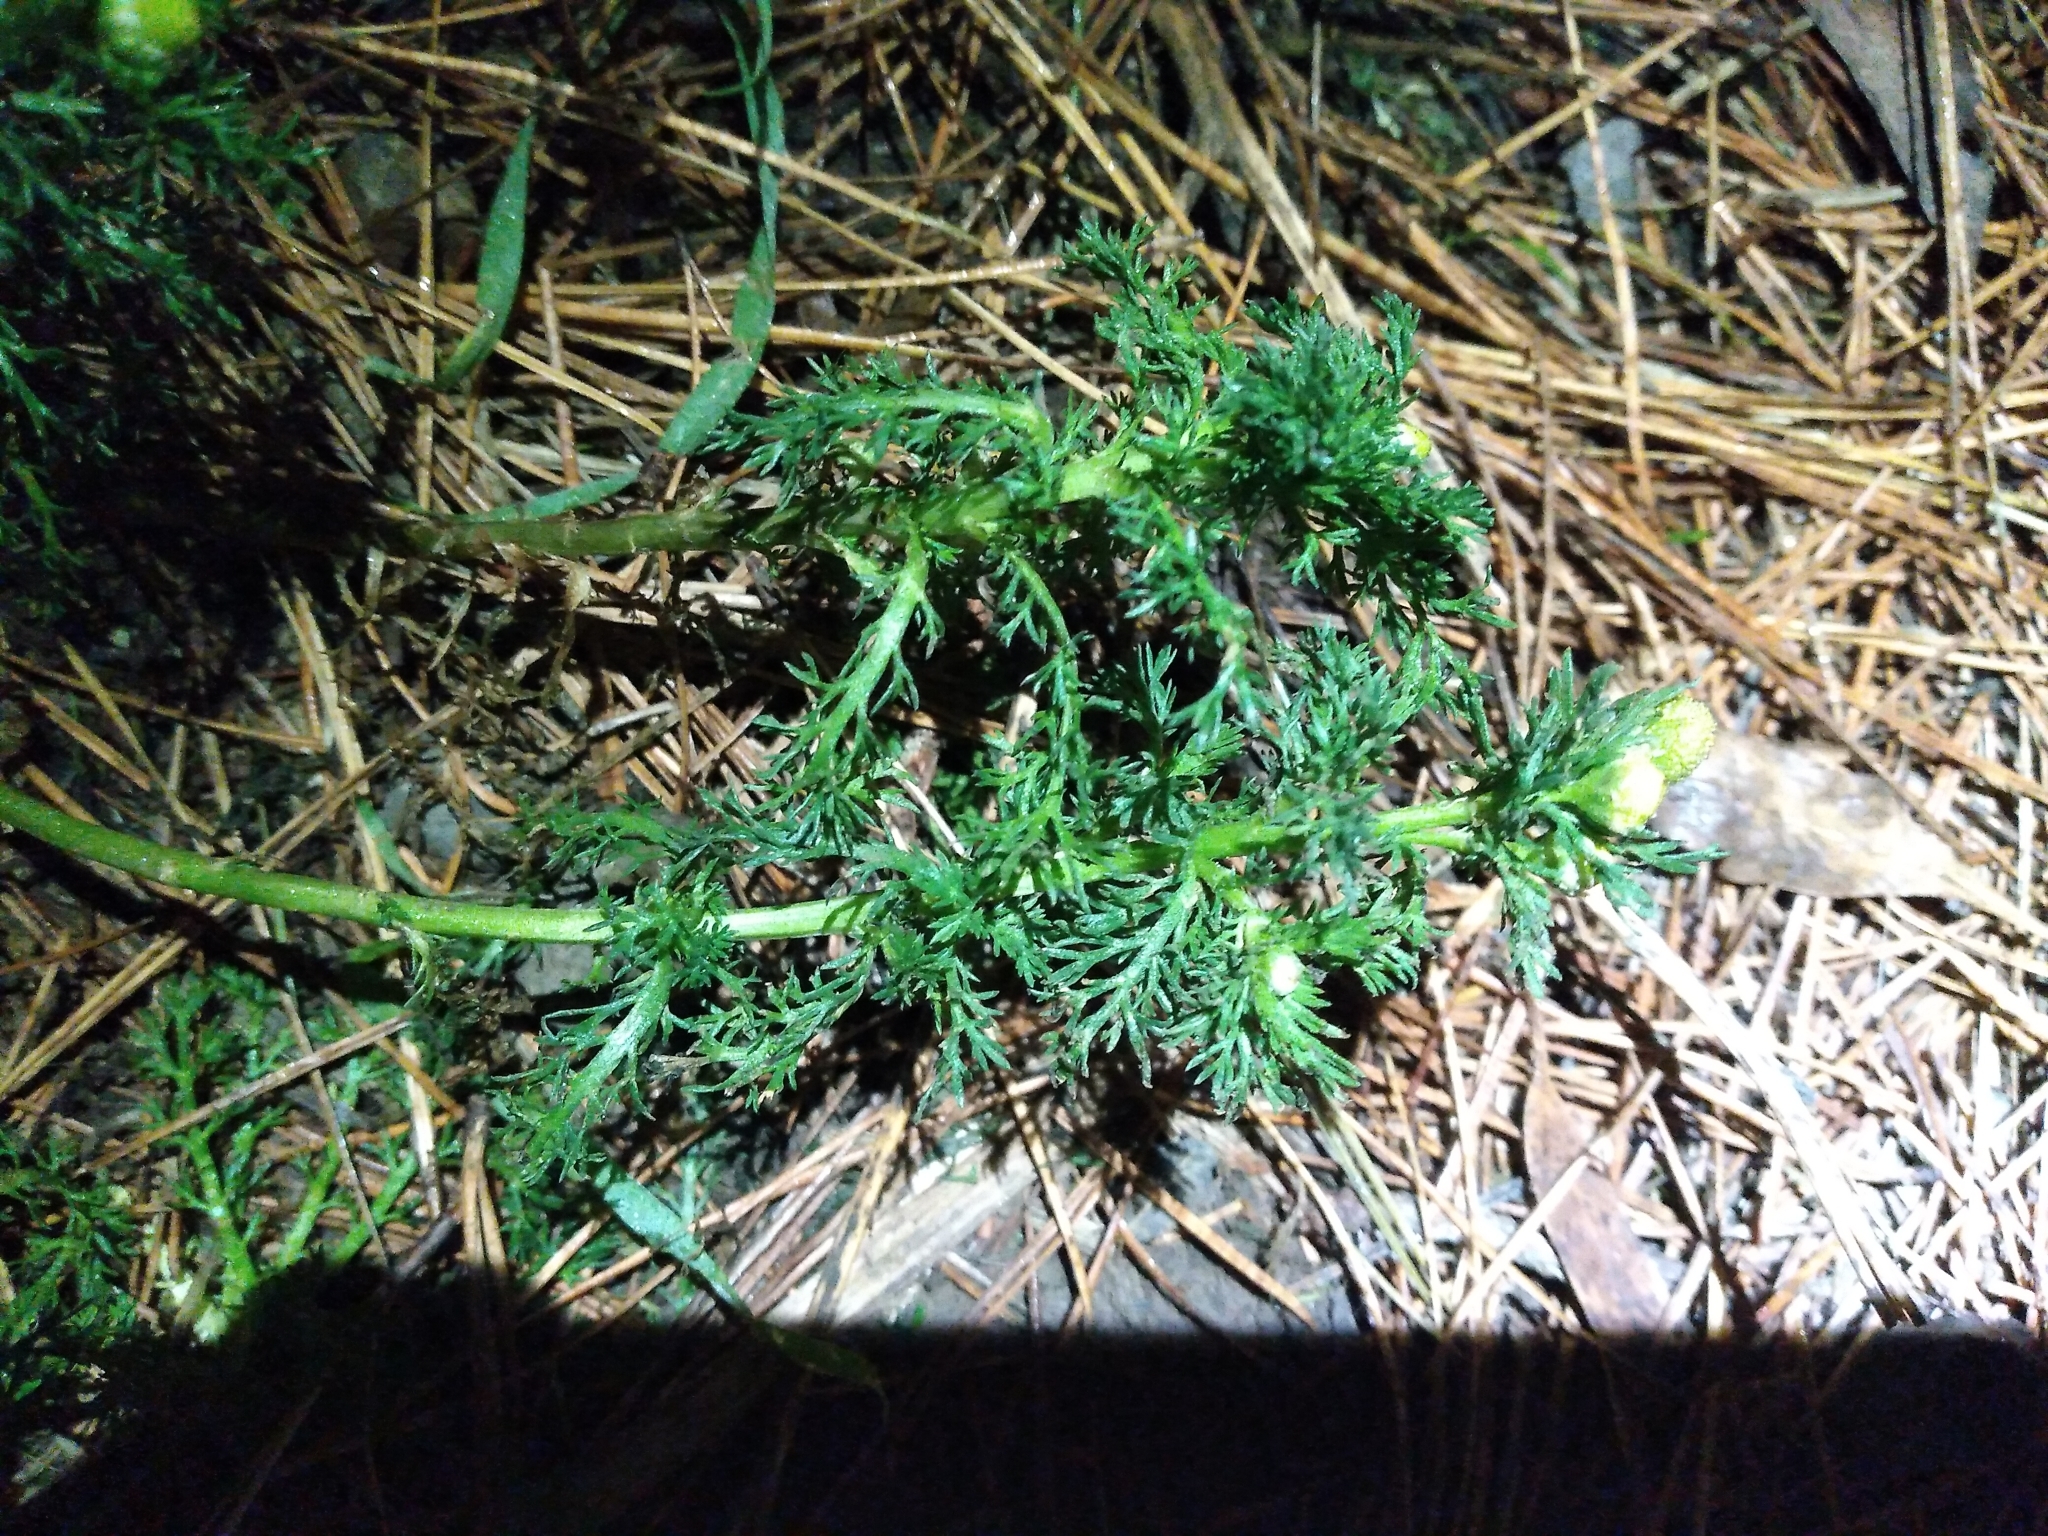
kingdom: Plantae
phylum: Tracheophyta
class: Magnoliopsida
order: Asterales
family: Asteraceae
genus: Matricaria
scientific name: Matricaria discoidea
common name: Disc mayweed
